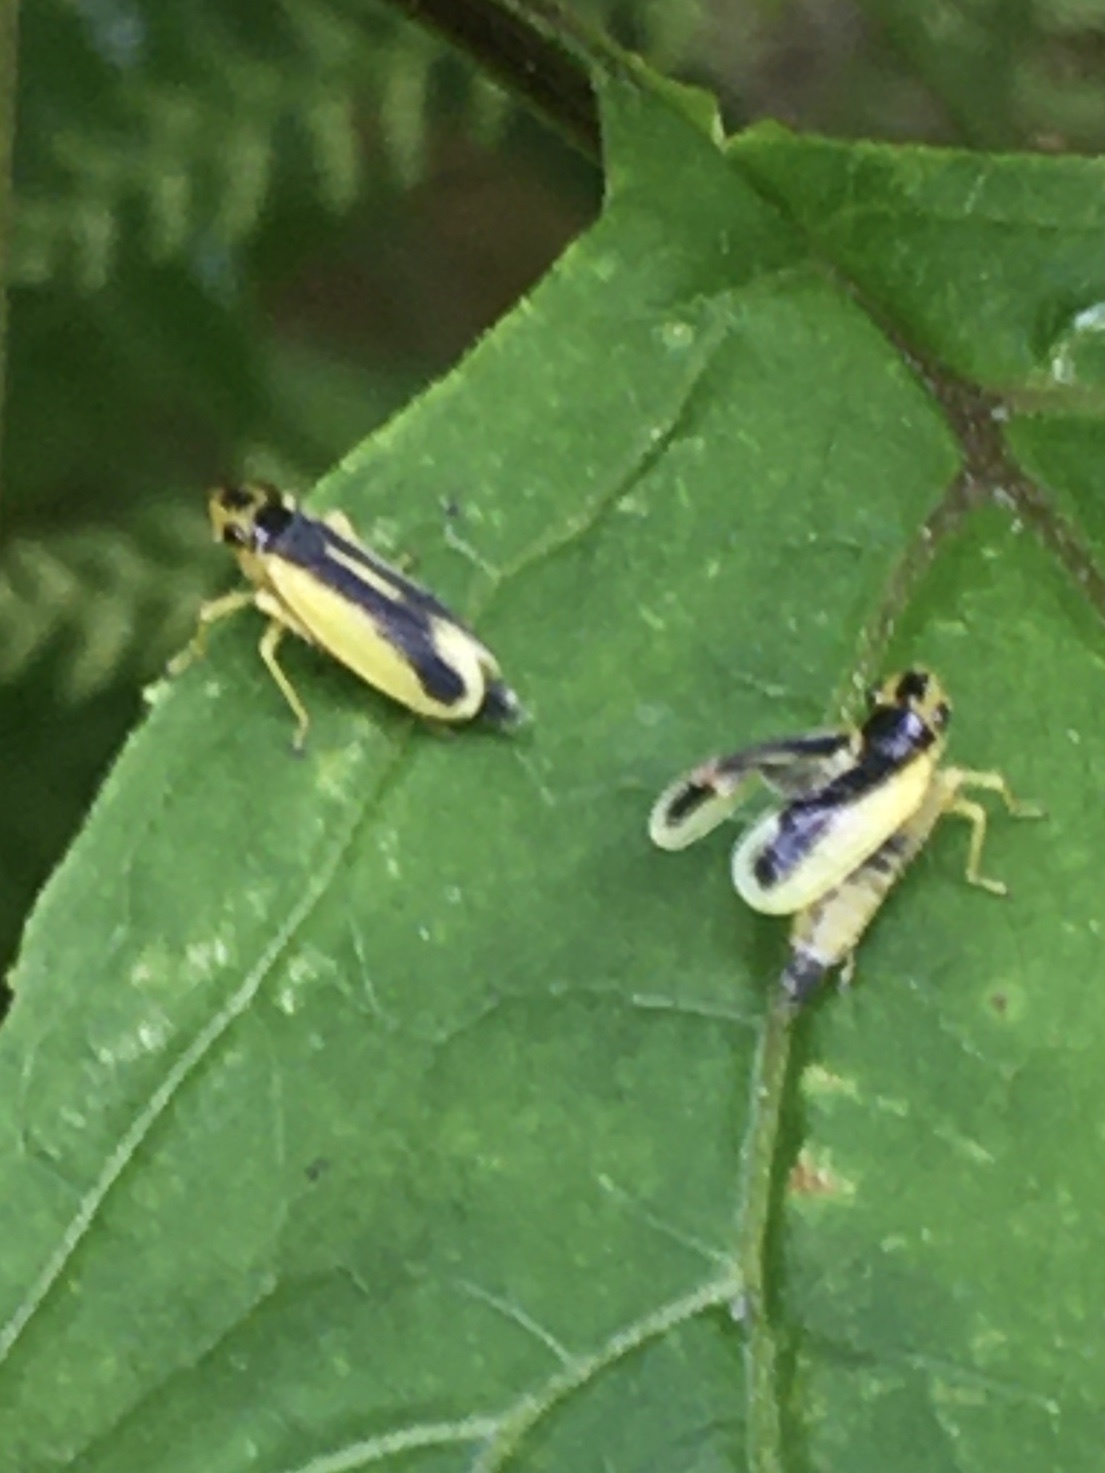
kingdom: Animalia
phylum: Arthropoda
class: Insecta
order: Hemiptera
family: Cicadellidae
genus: Evacanthus
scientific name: Evacanthus chlamidatus
